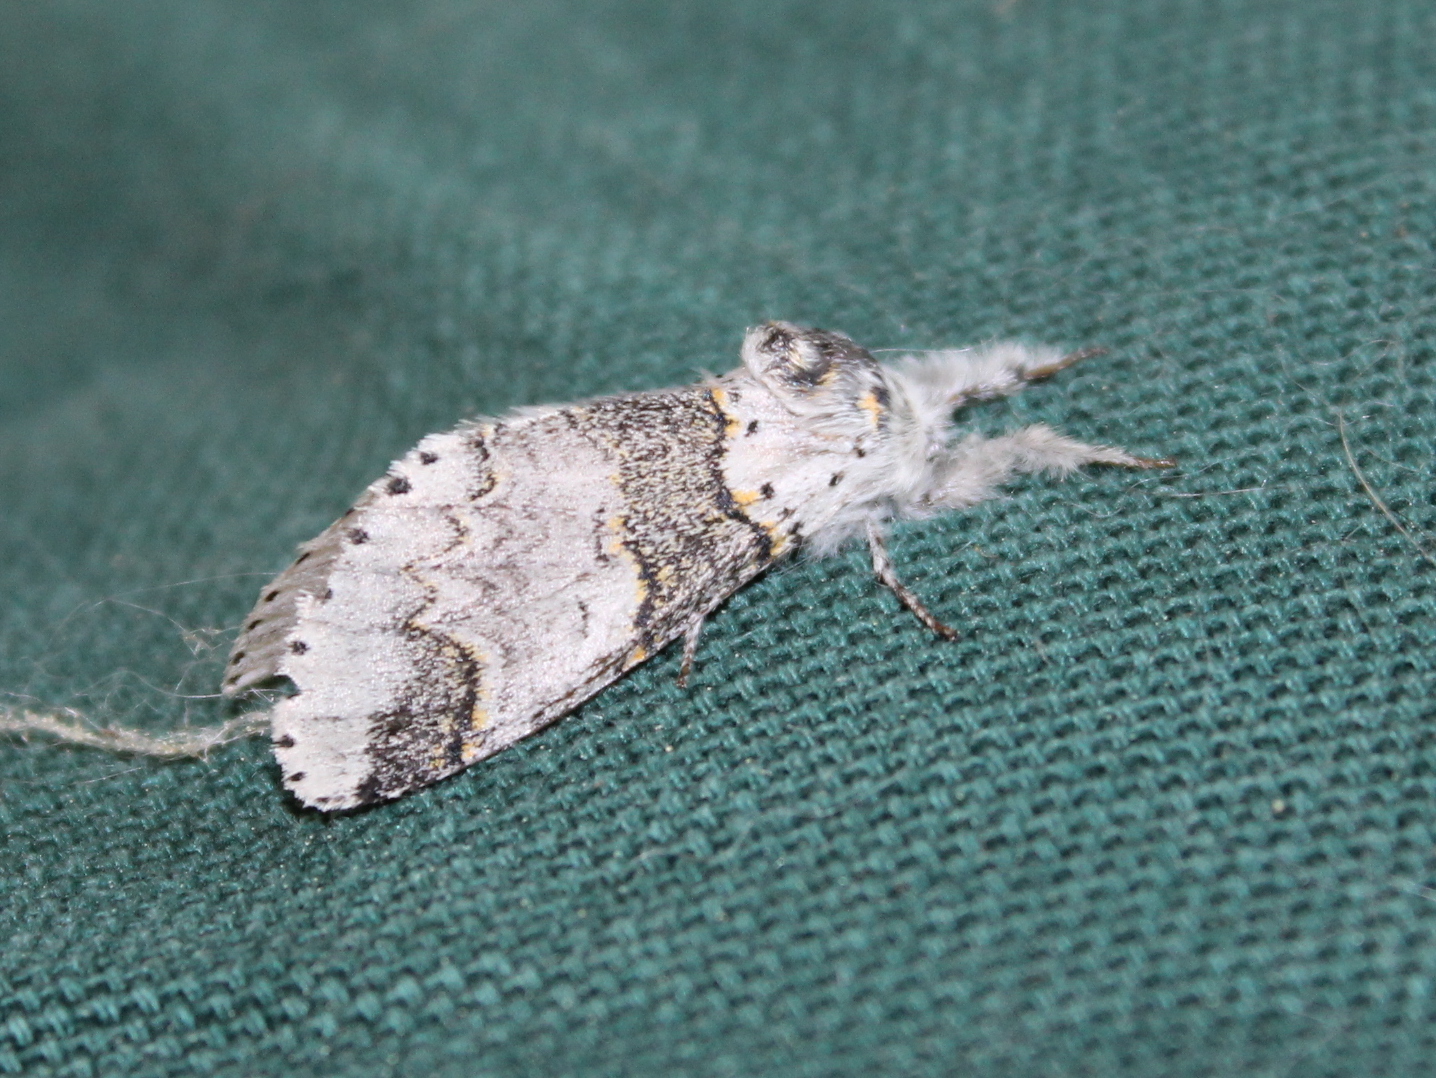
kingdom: Animalia
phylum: Arthropoda
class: Insecta
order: Lepidoptera
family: Notodontidae
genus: Furcula
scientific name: Furcula occidentalis
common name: Western furcula moth
